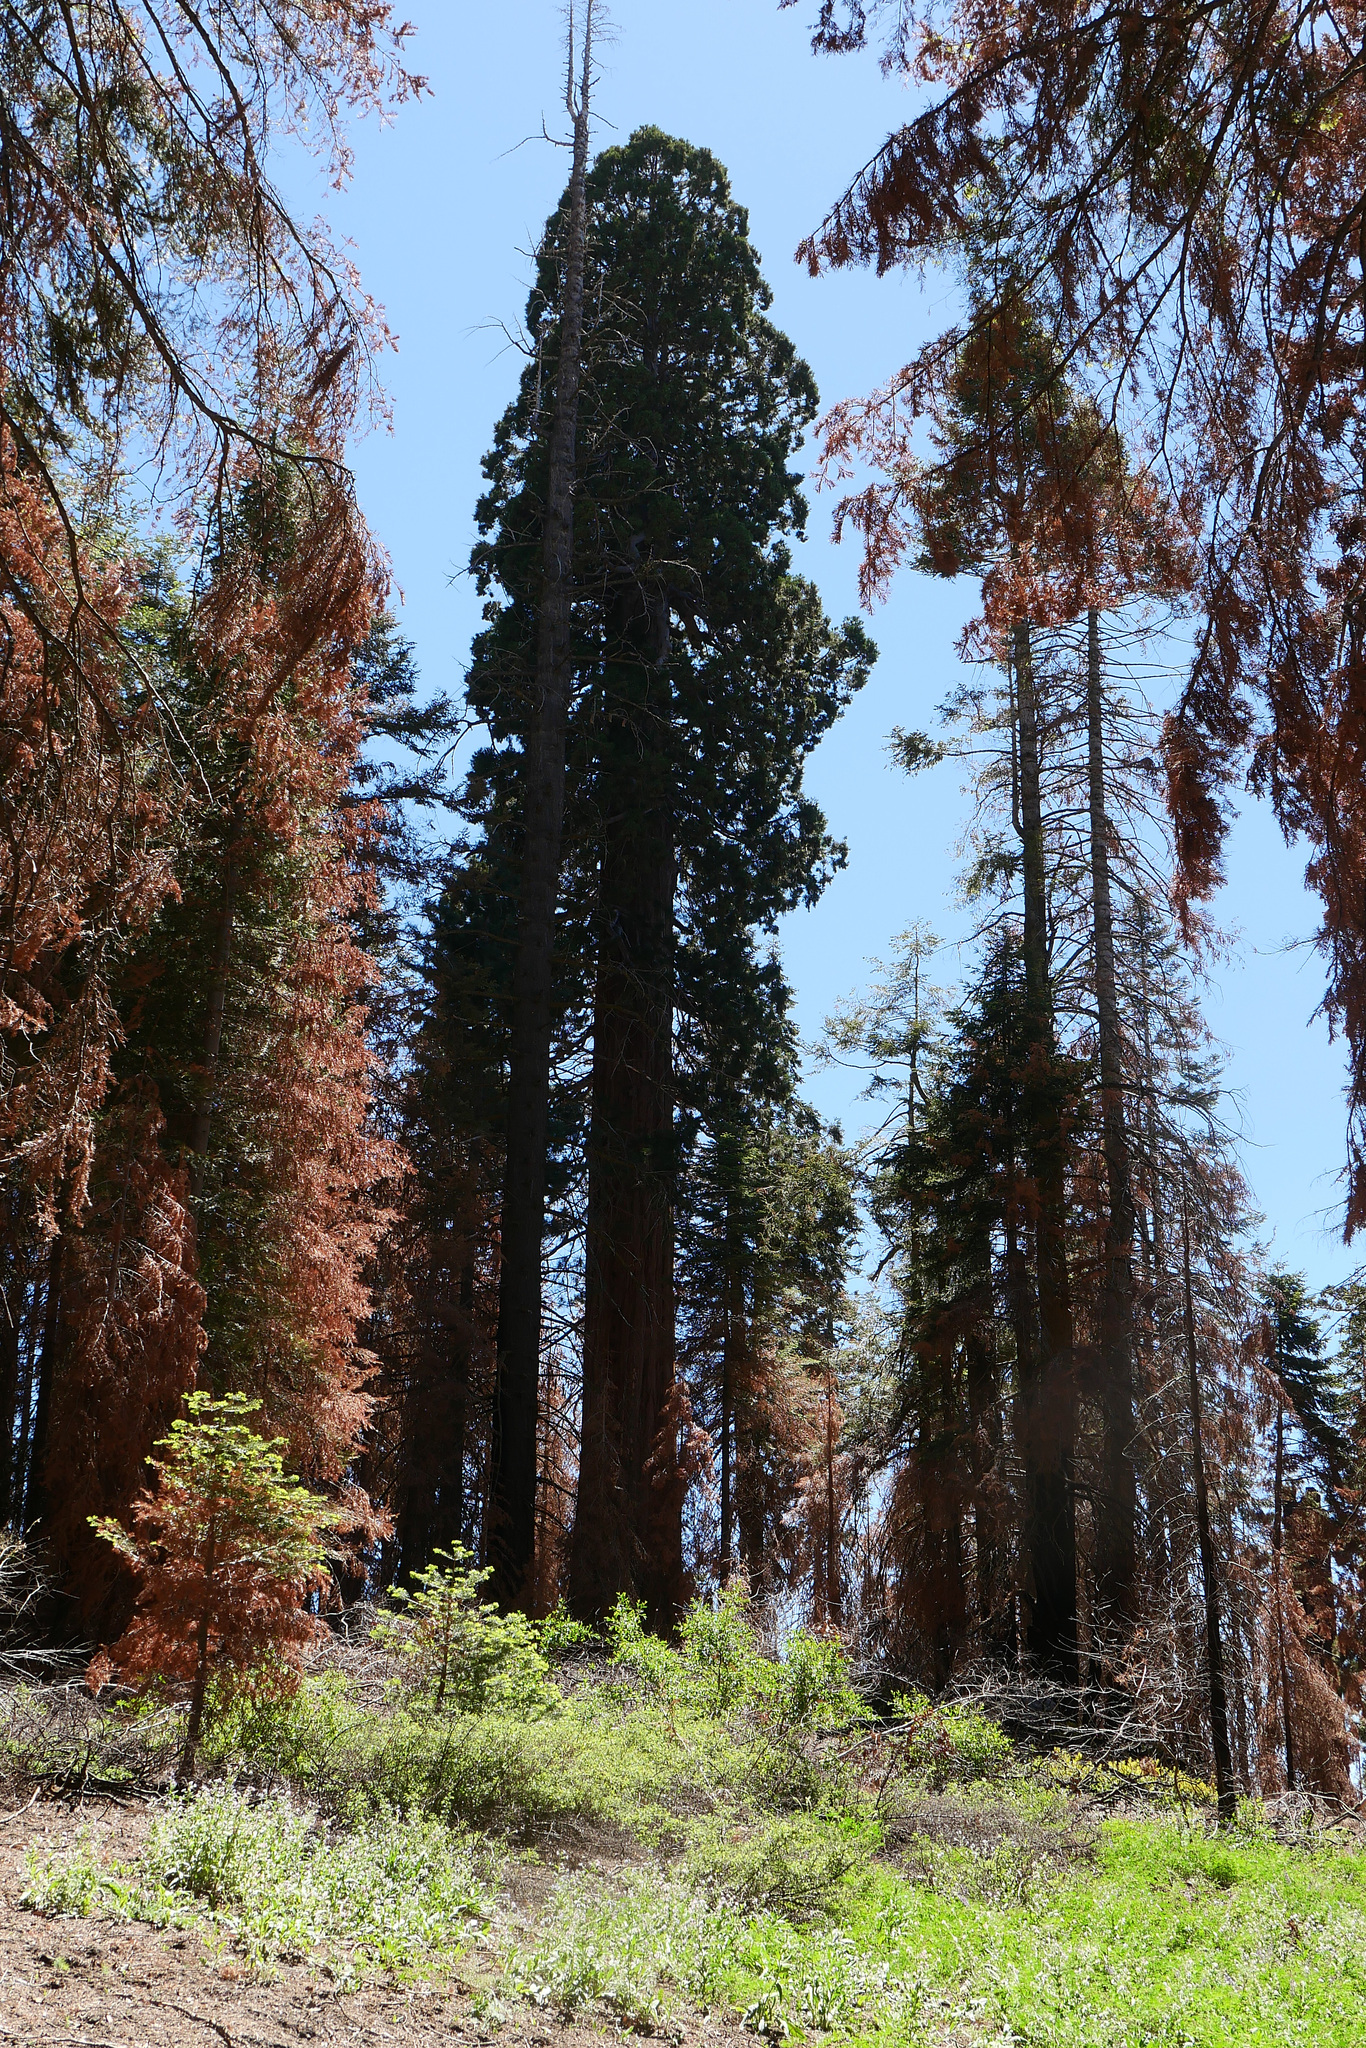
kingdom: Plantae
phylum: Tracheophyta
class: Pinopsida
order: Pinales
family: Cupressaceae
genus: Sequoiadendron
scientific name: Sequoiadendron giganteum
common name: Wellingtonia
